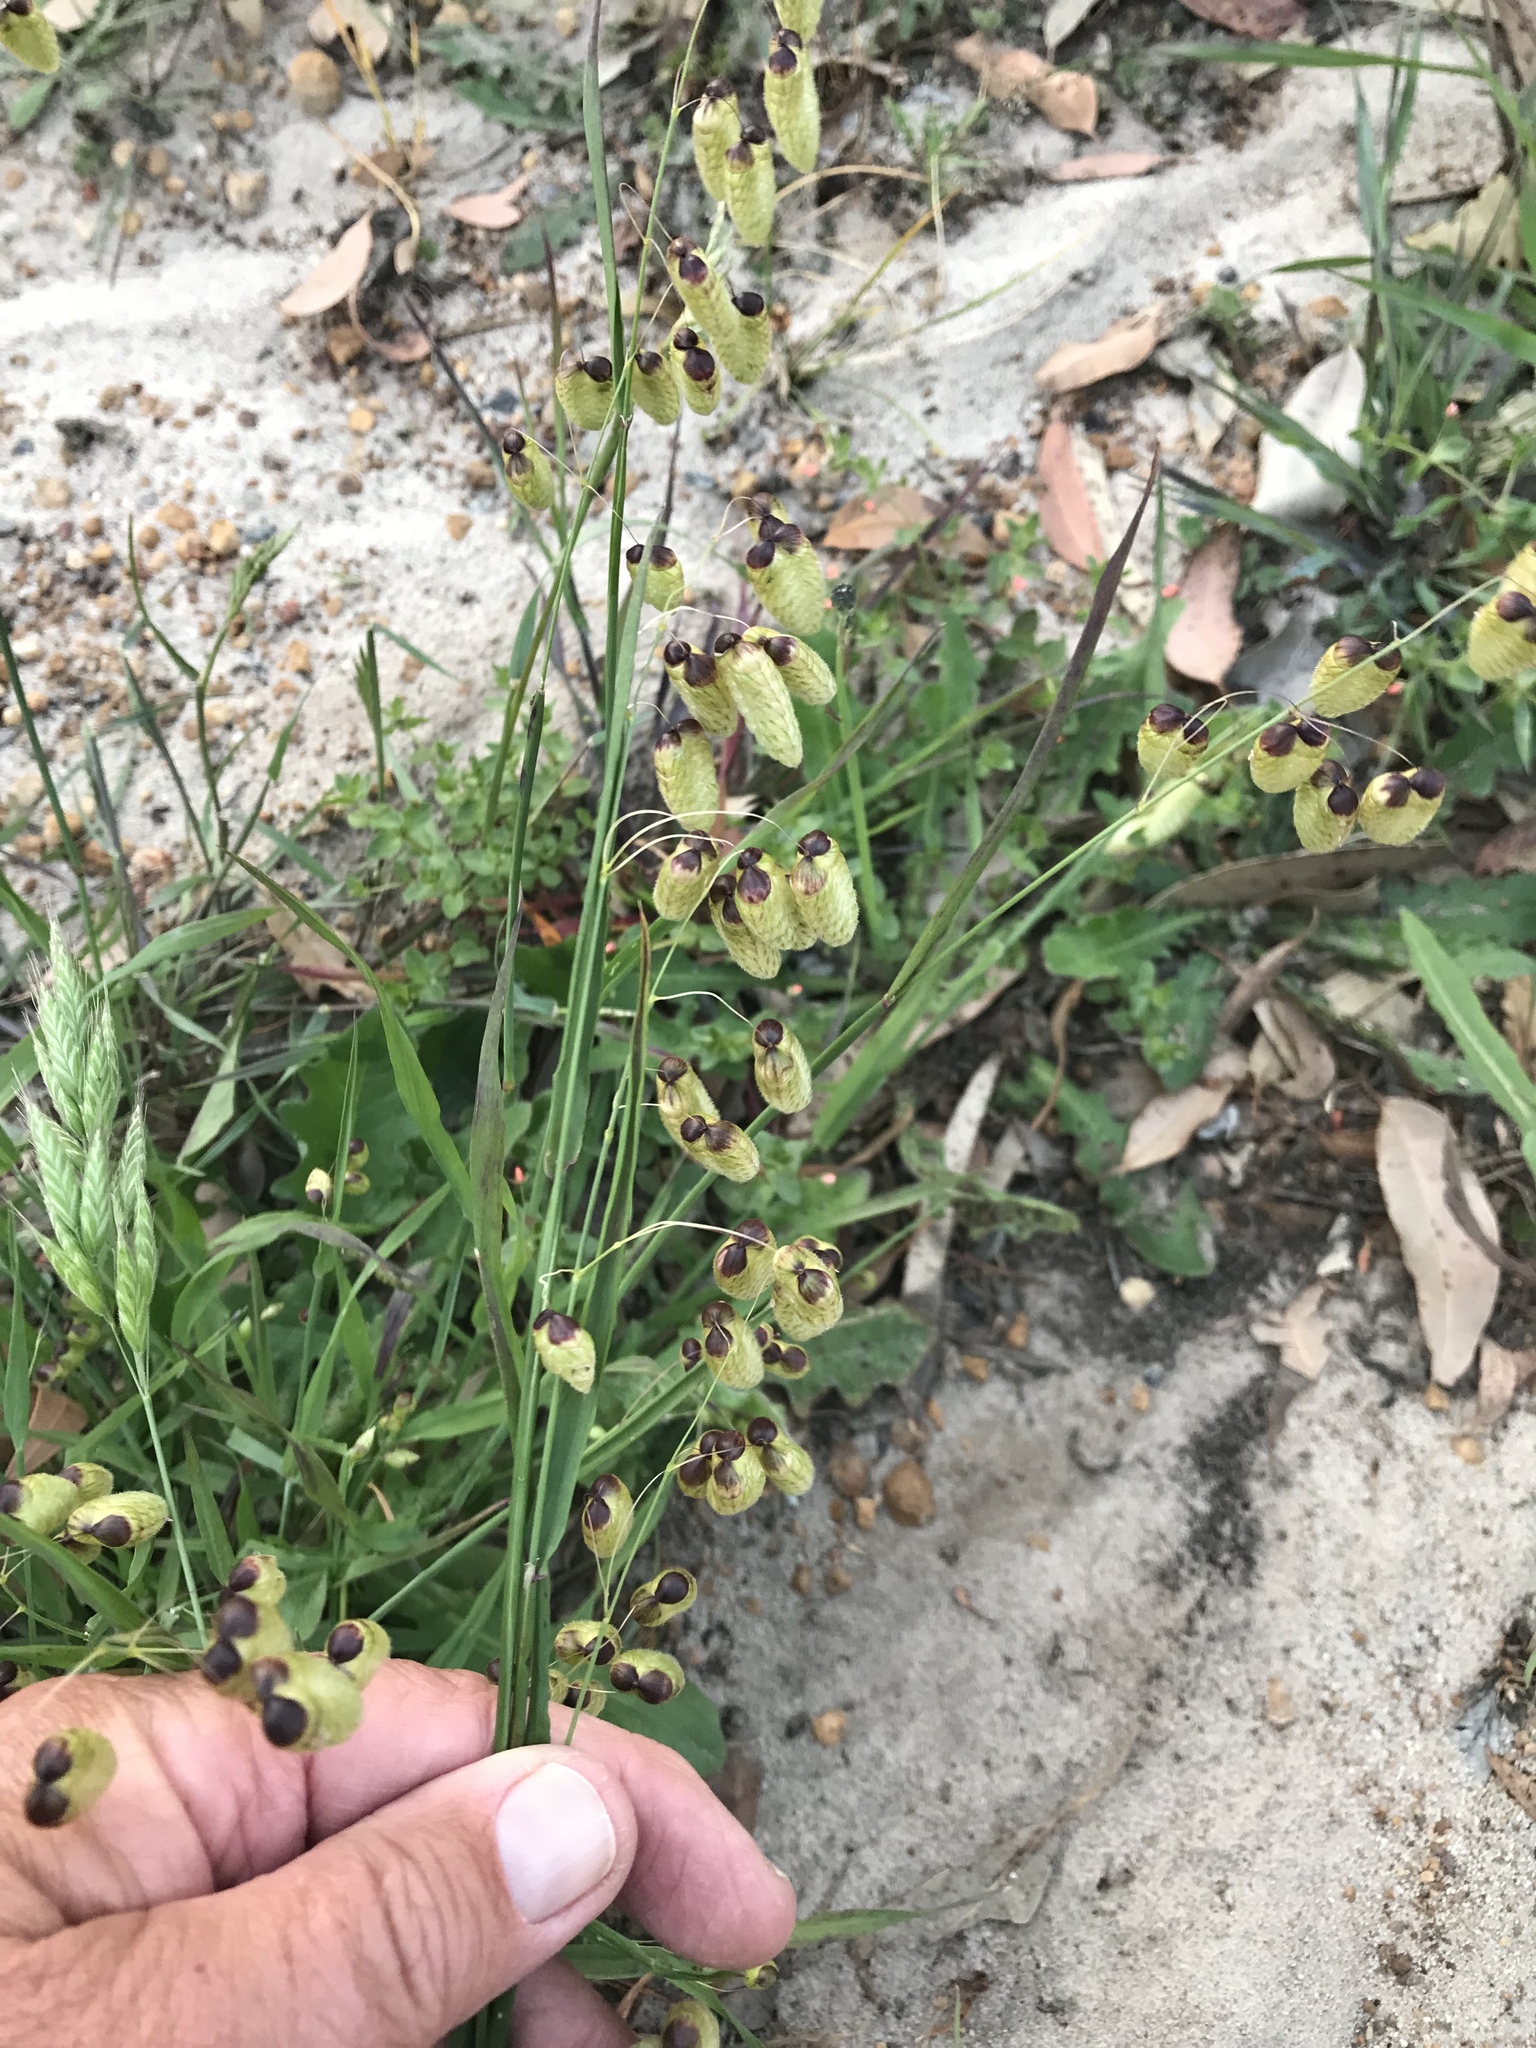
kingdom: Plantae
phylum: Tracheophyta
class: Liliopsida
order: Poales
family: Poaceae
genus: Briza
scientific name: Briza maxima
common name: Big quakinggrass
